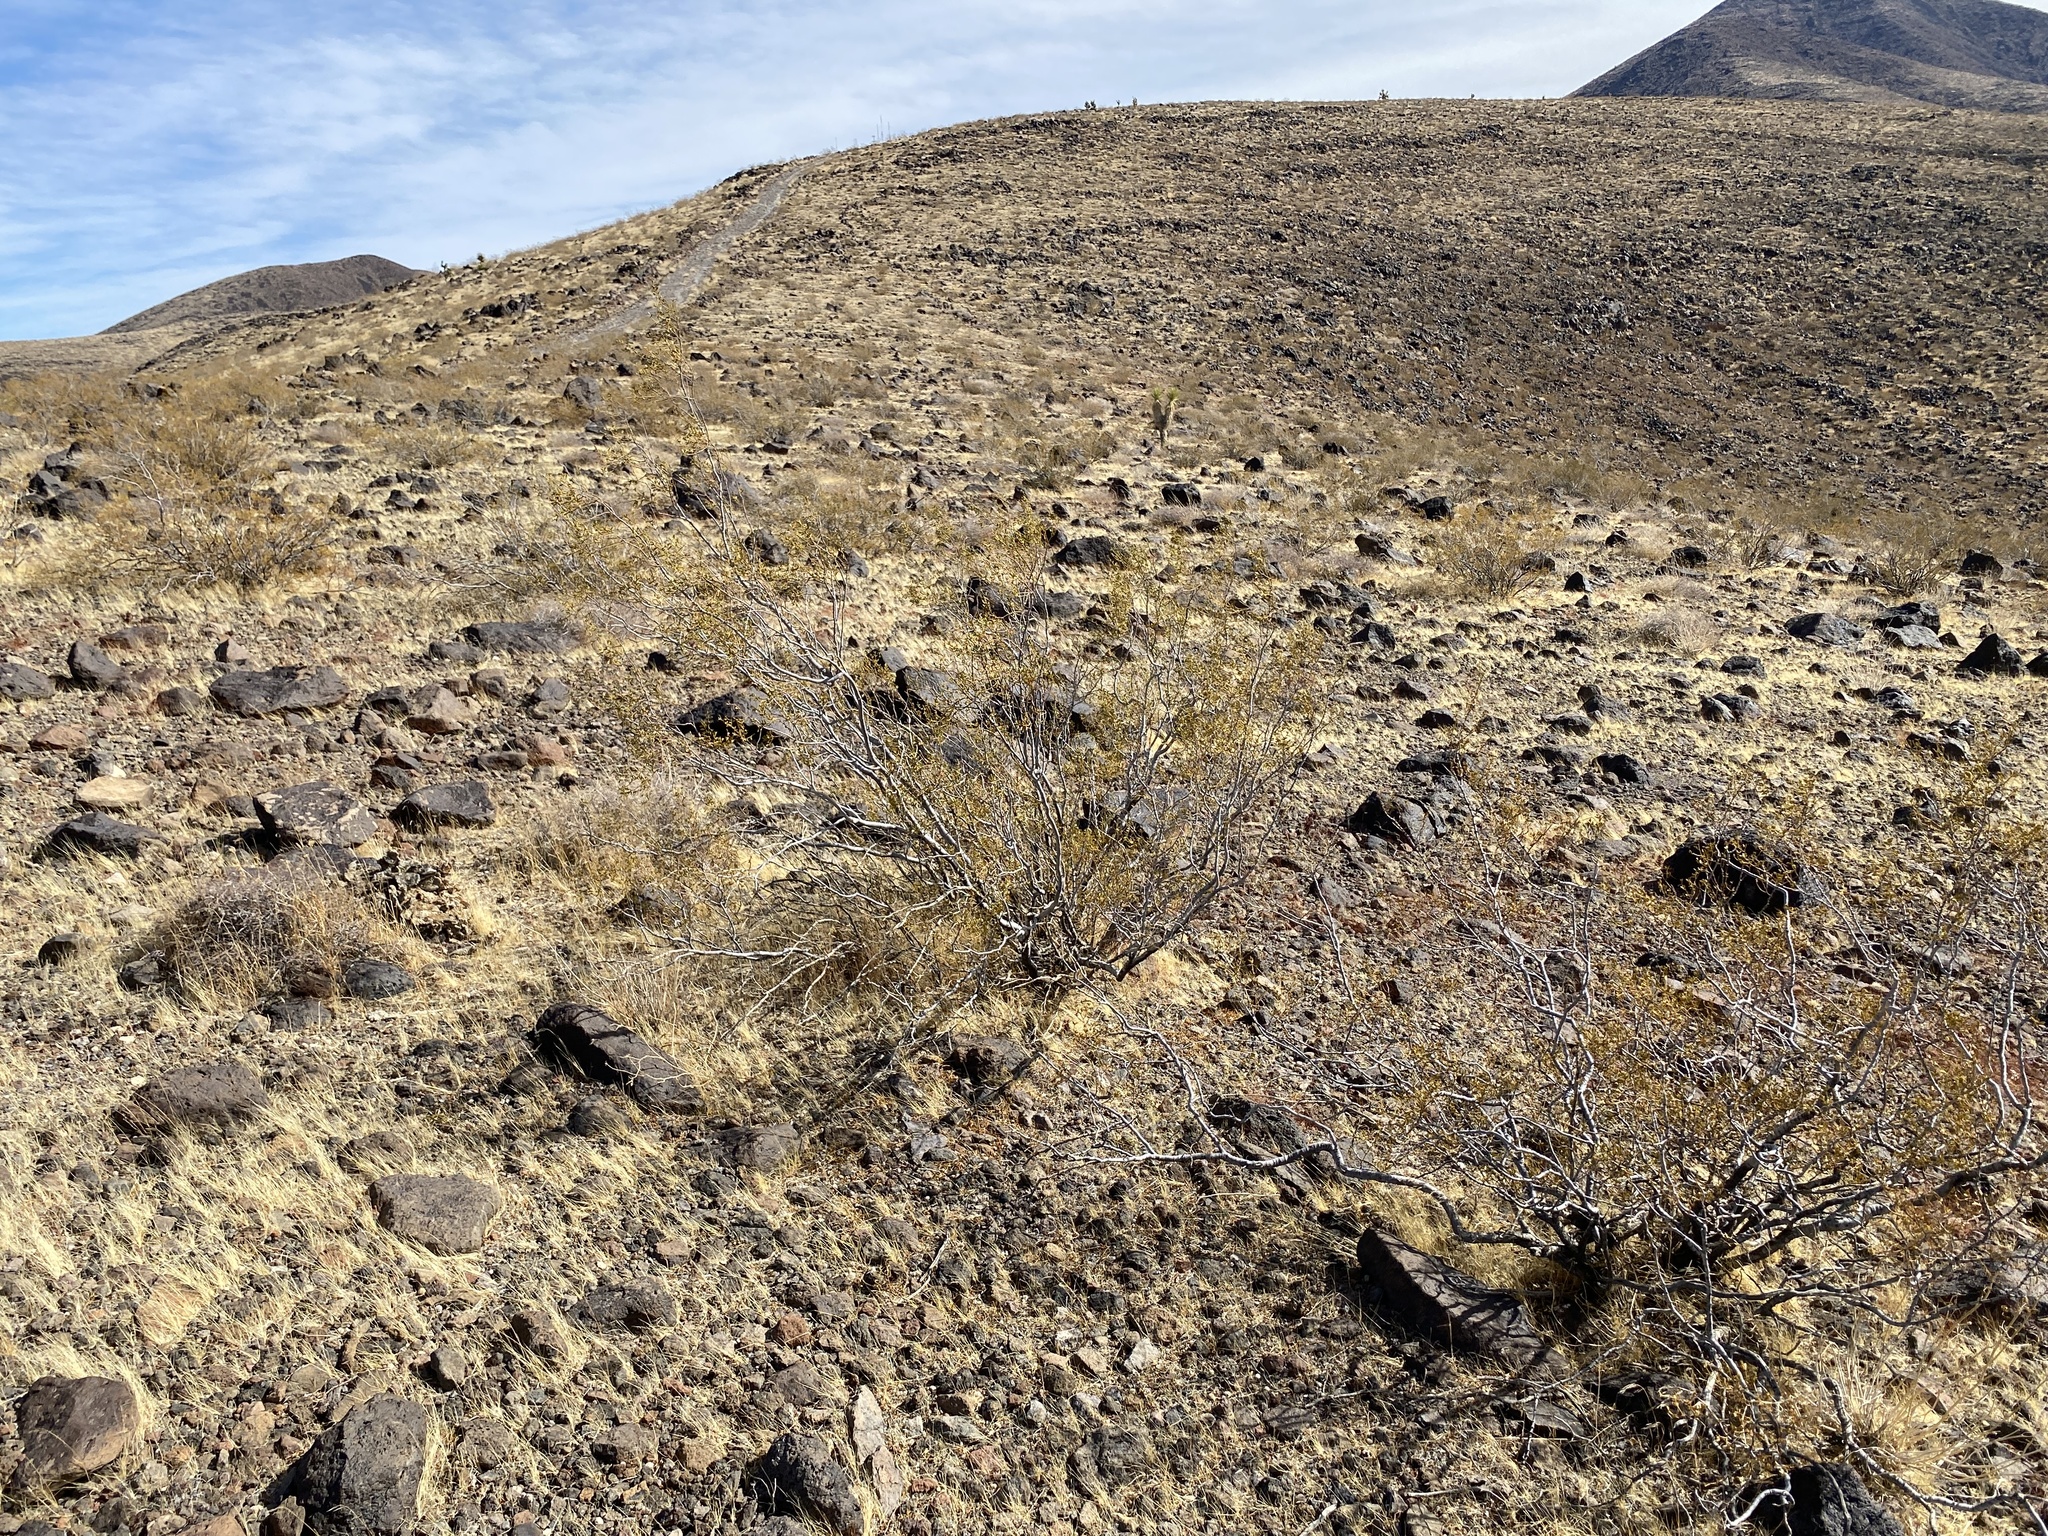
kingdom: Plantae
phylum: Tracheophyta
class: Magnoliopsida
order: Zygophyllales
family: Zygophyllaceae
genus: Larrea
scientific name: Larrea tridentata
